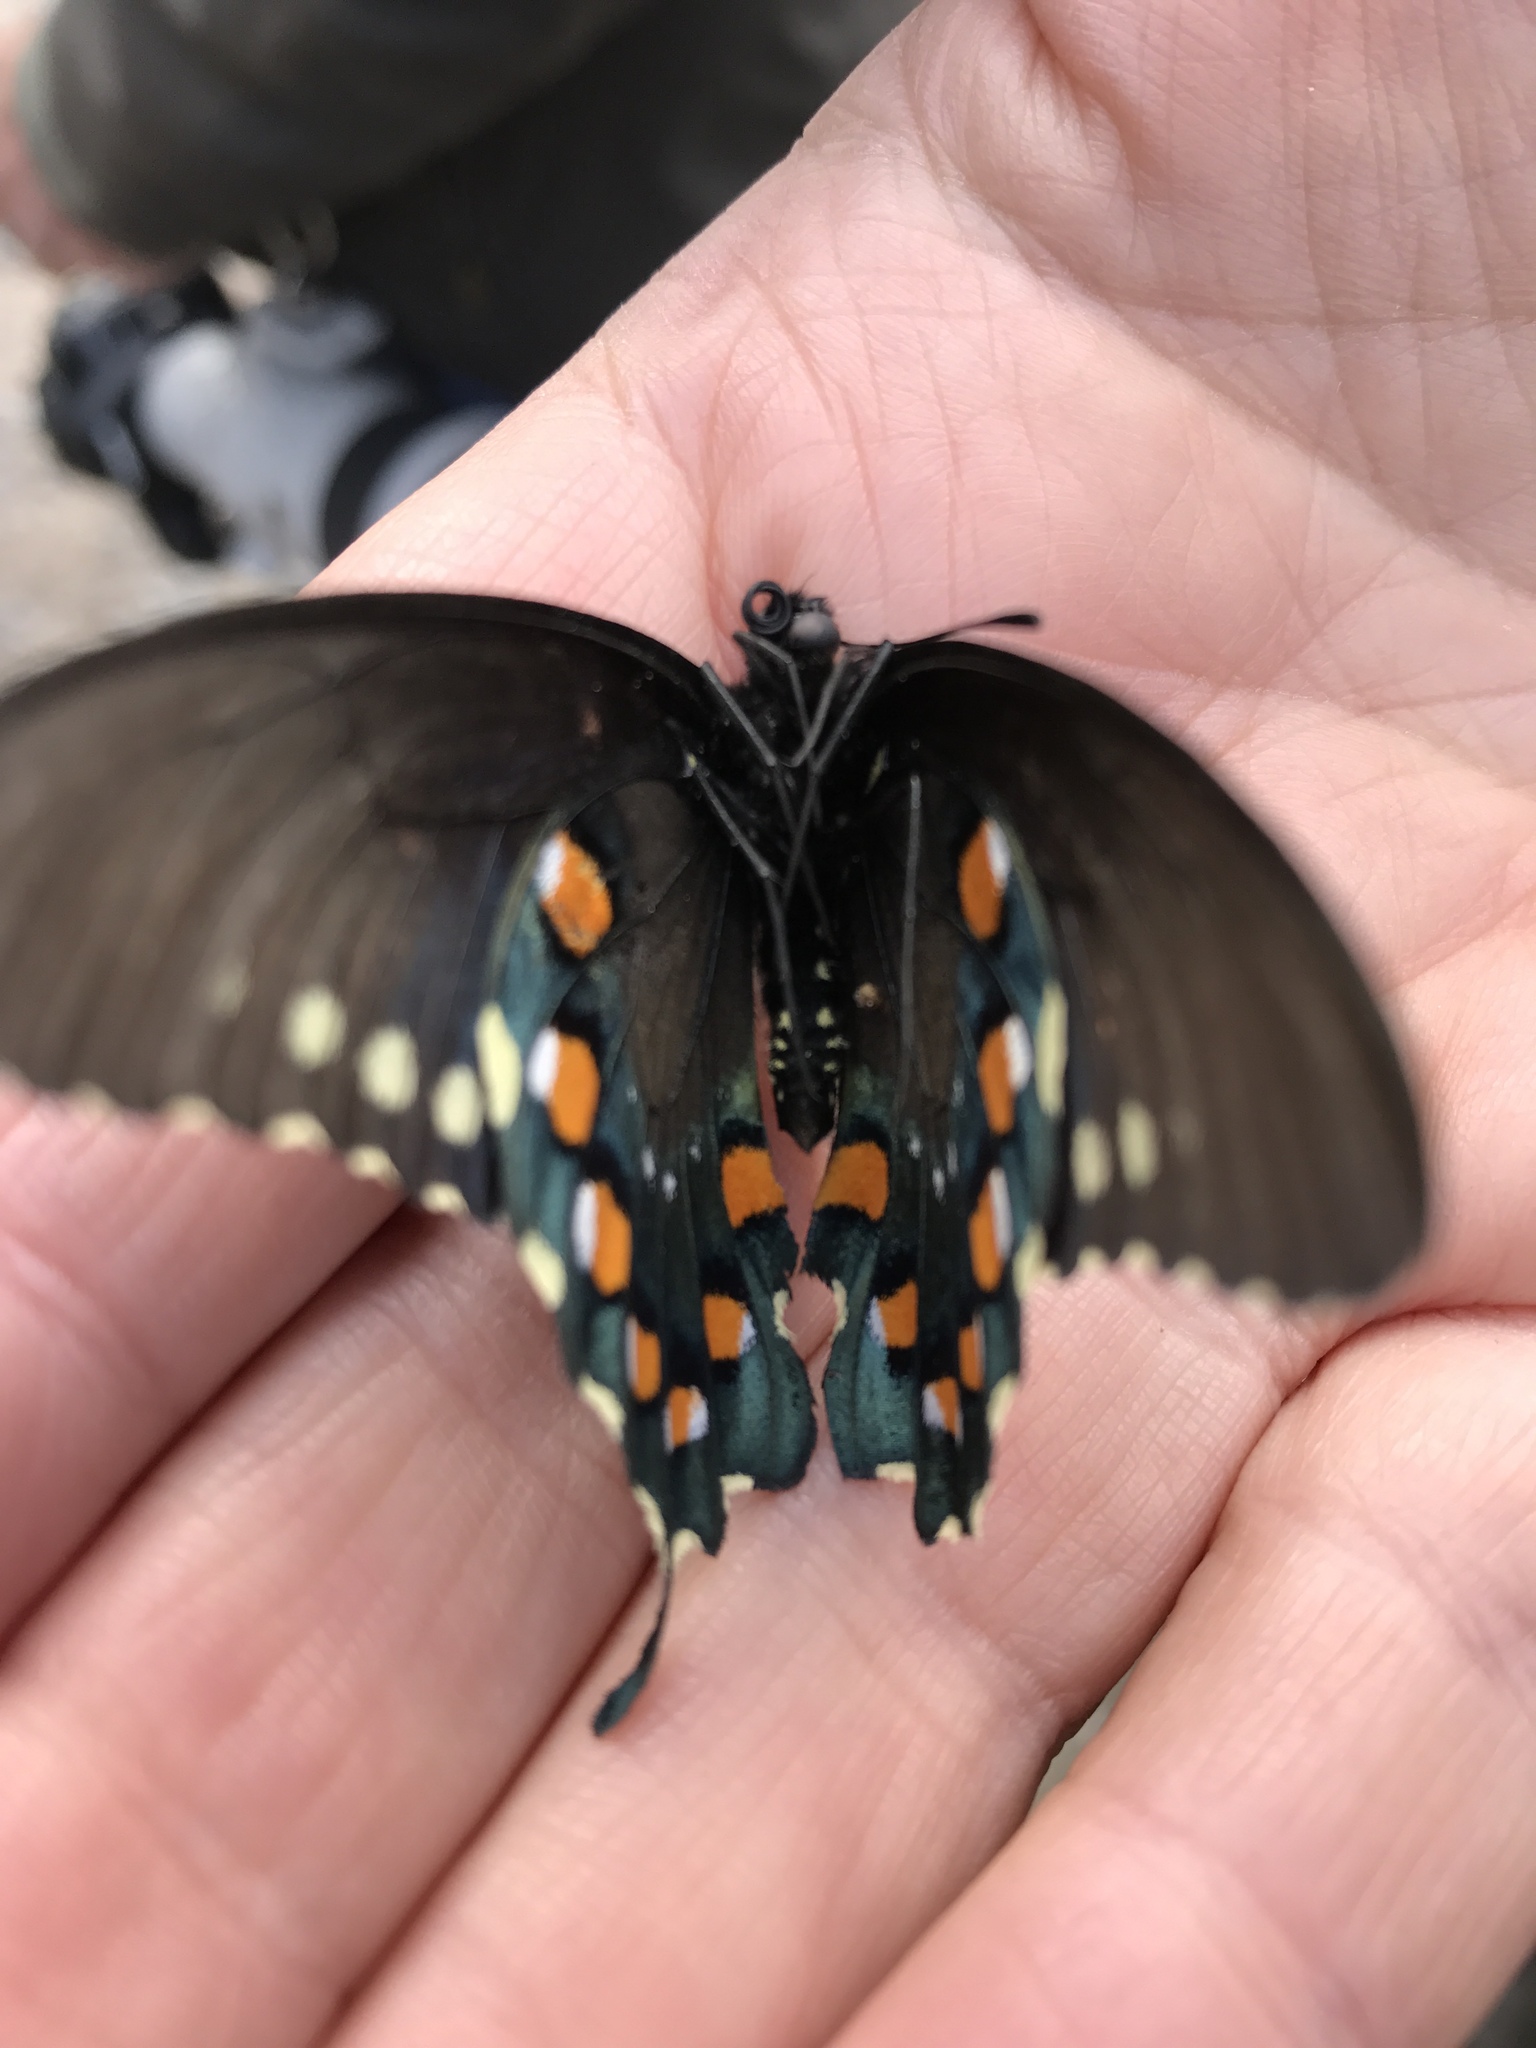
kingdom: Animalia
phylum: Arthropoda
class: Insecta
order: Lepidoptera
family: Papilionidae
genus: Battus
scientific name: Battus philenor
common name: Pipevine swallowtail
